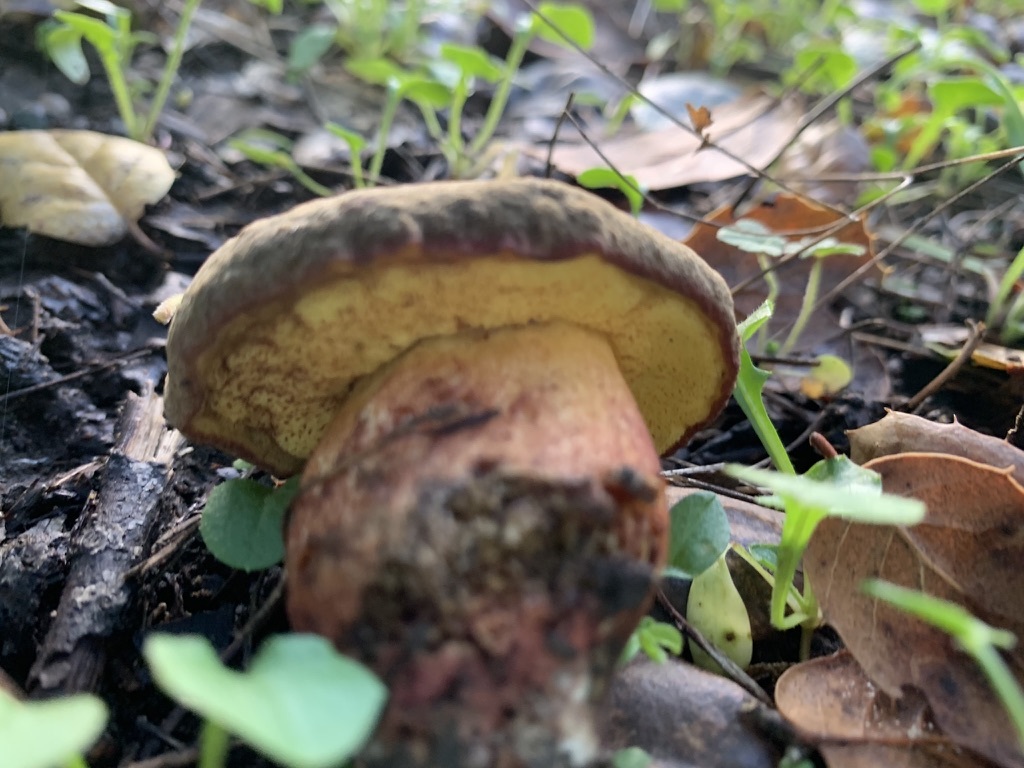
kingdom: Fungi
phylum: Basidiomycota
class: Agaricomycetes
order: Boletales
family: Boletaceae
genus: Xerocomellus
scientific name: Xerocomellus dryophilus
